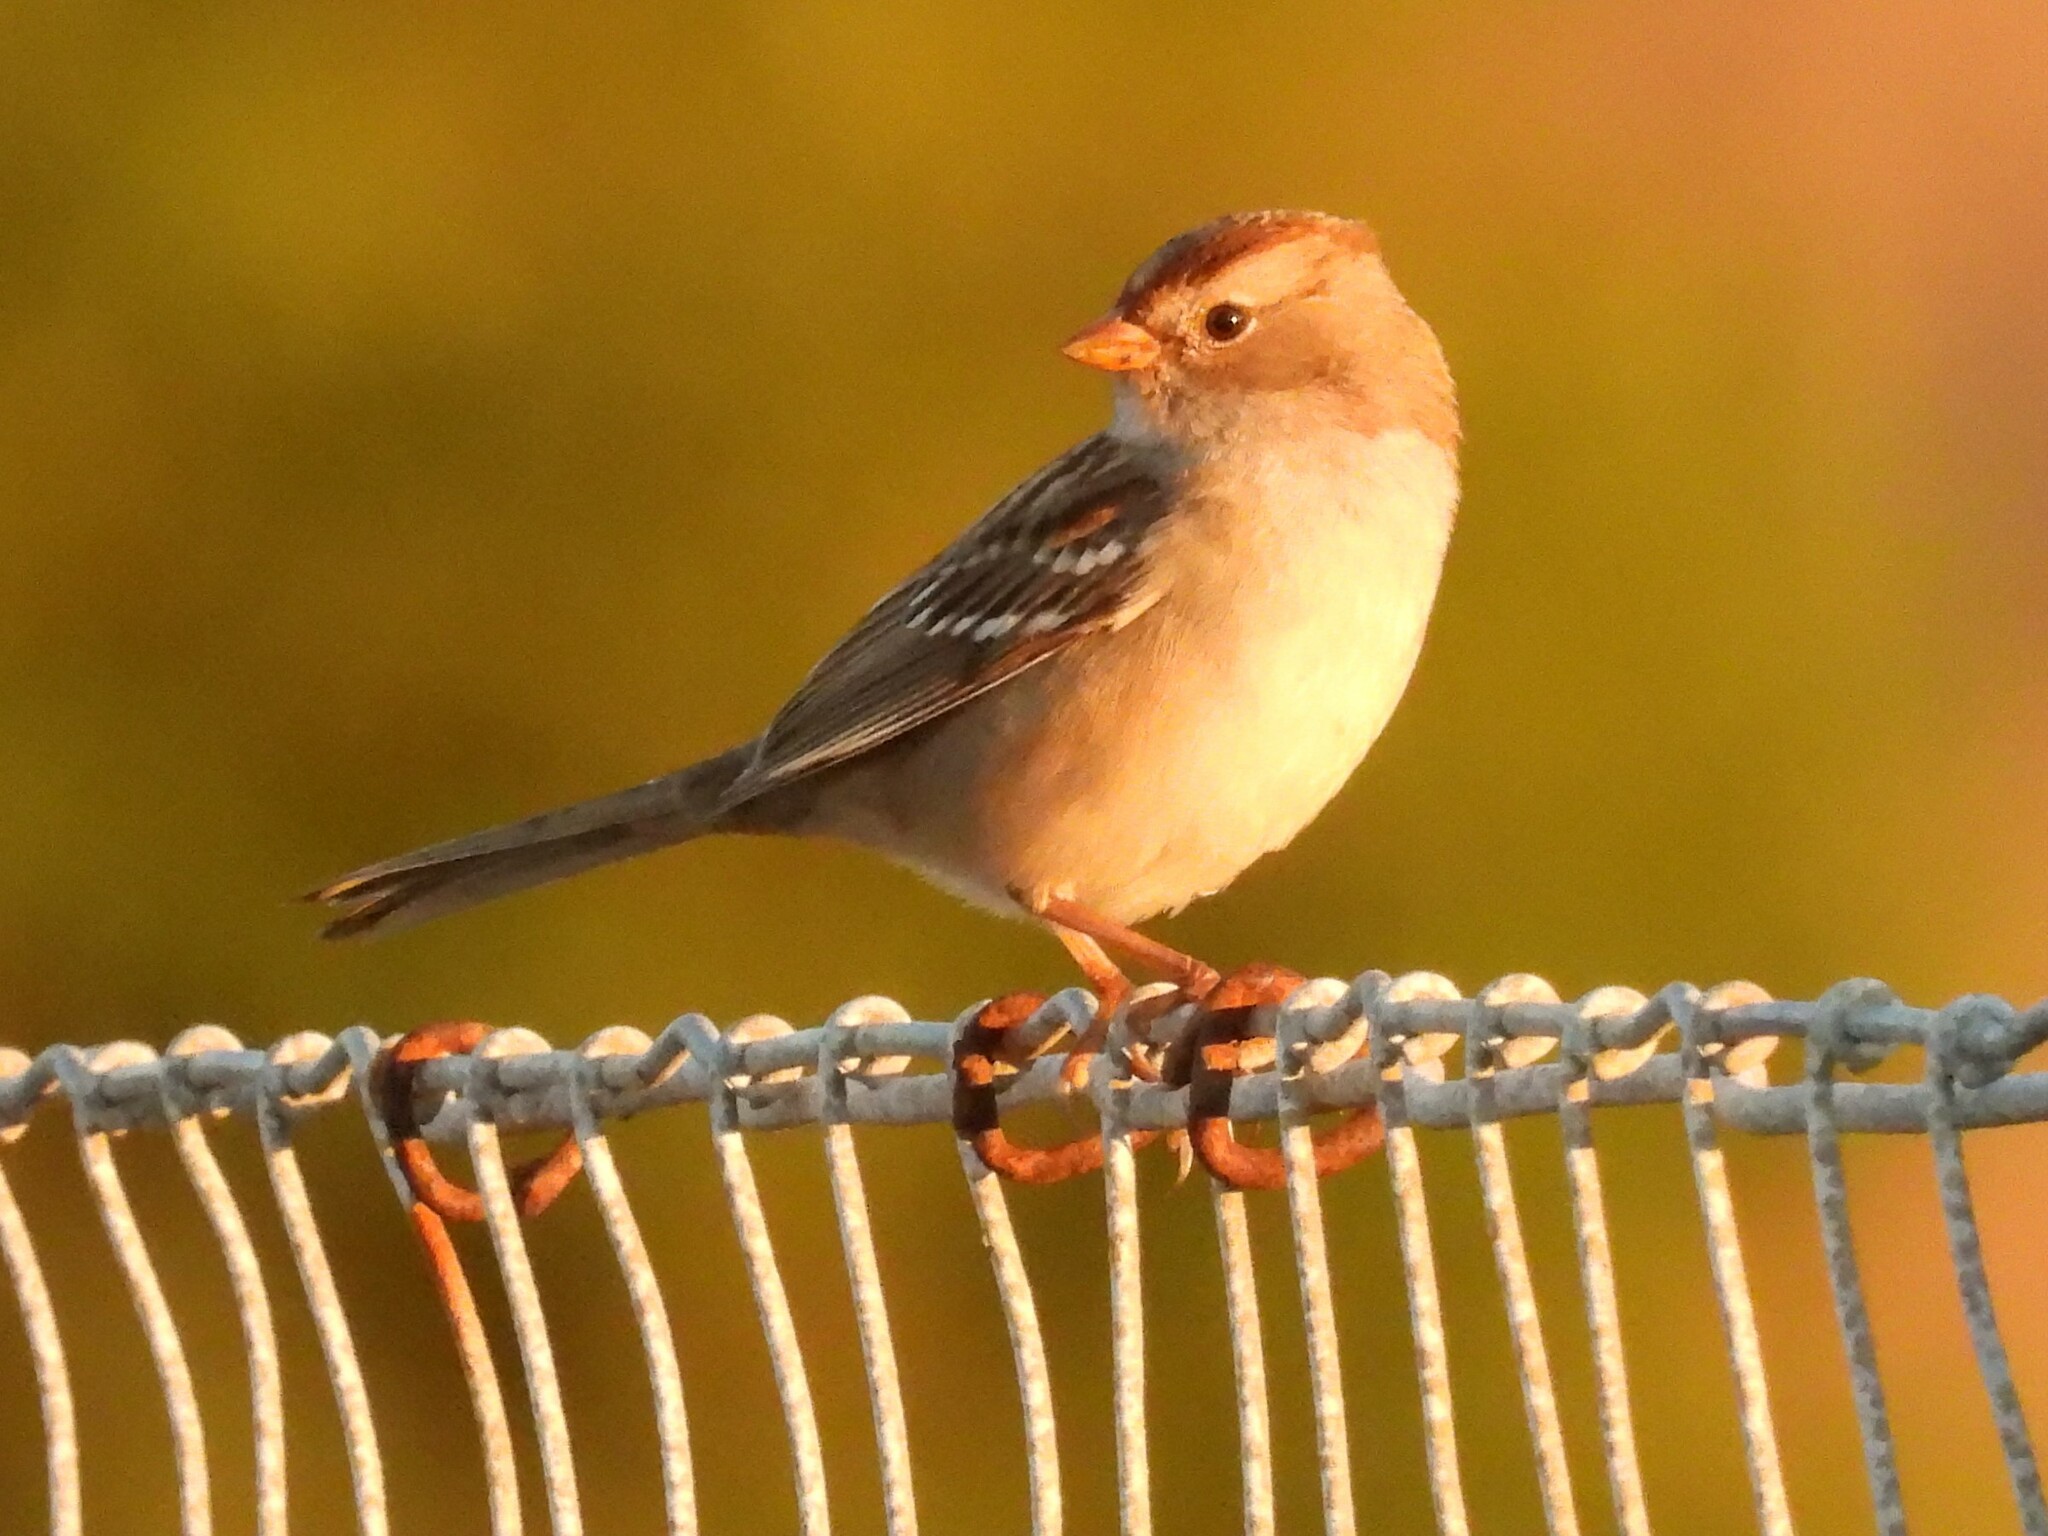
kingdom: Animalia
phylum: Chordata
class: Aves
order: Passeriformes
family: Passerellidae
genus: Zonotrichia
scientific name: Zonotrichia leucophrys
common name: White-crowned sparrow
